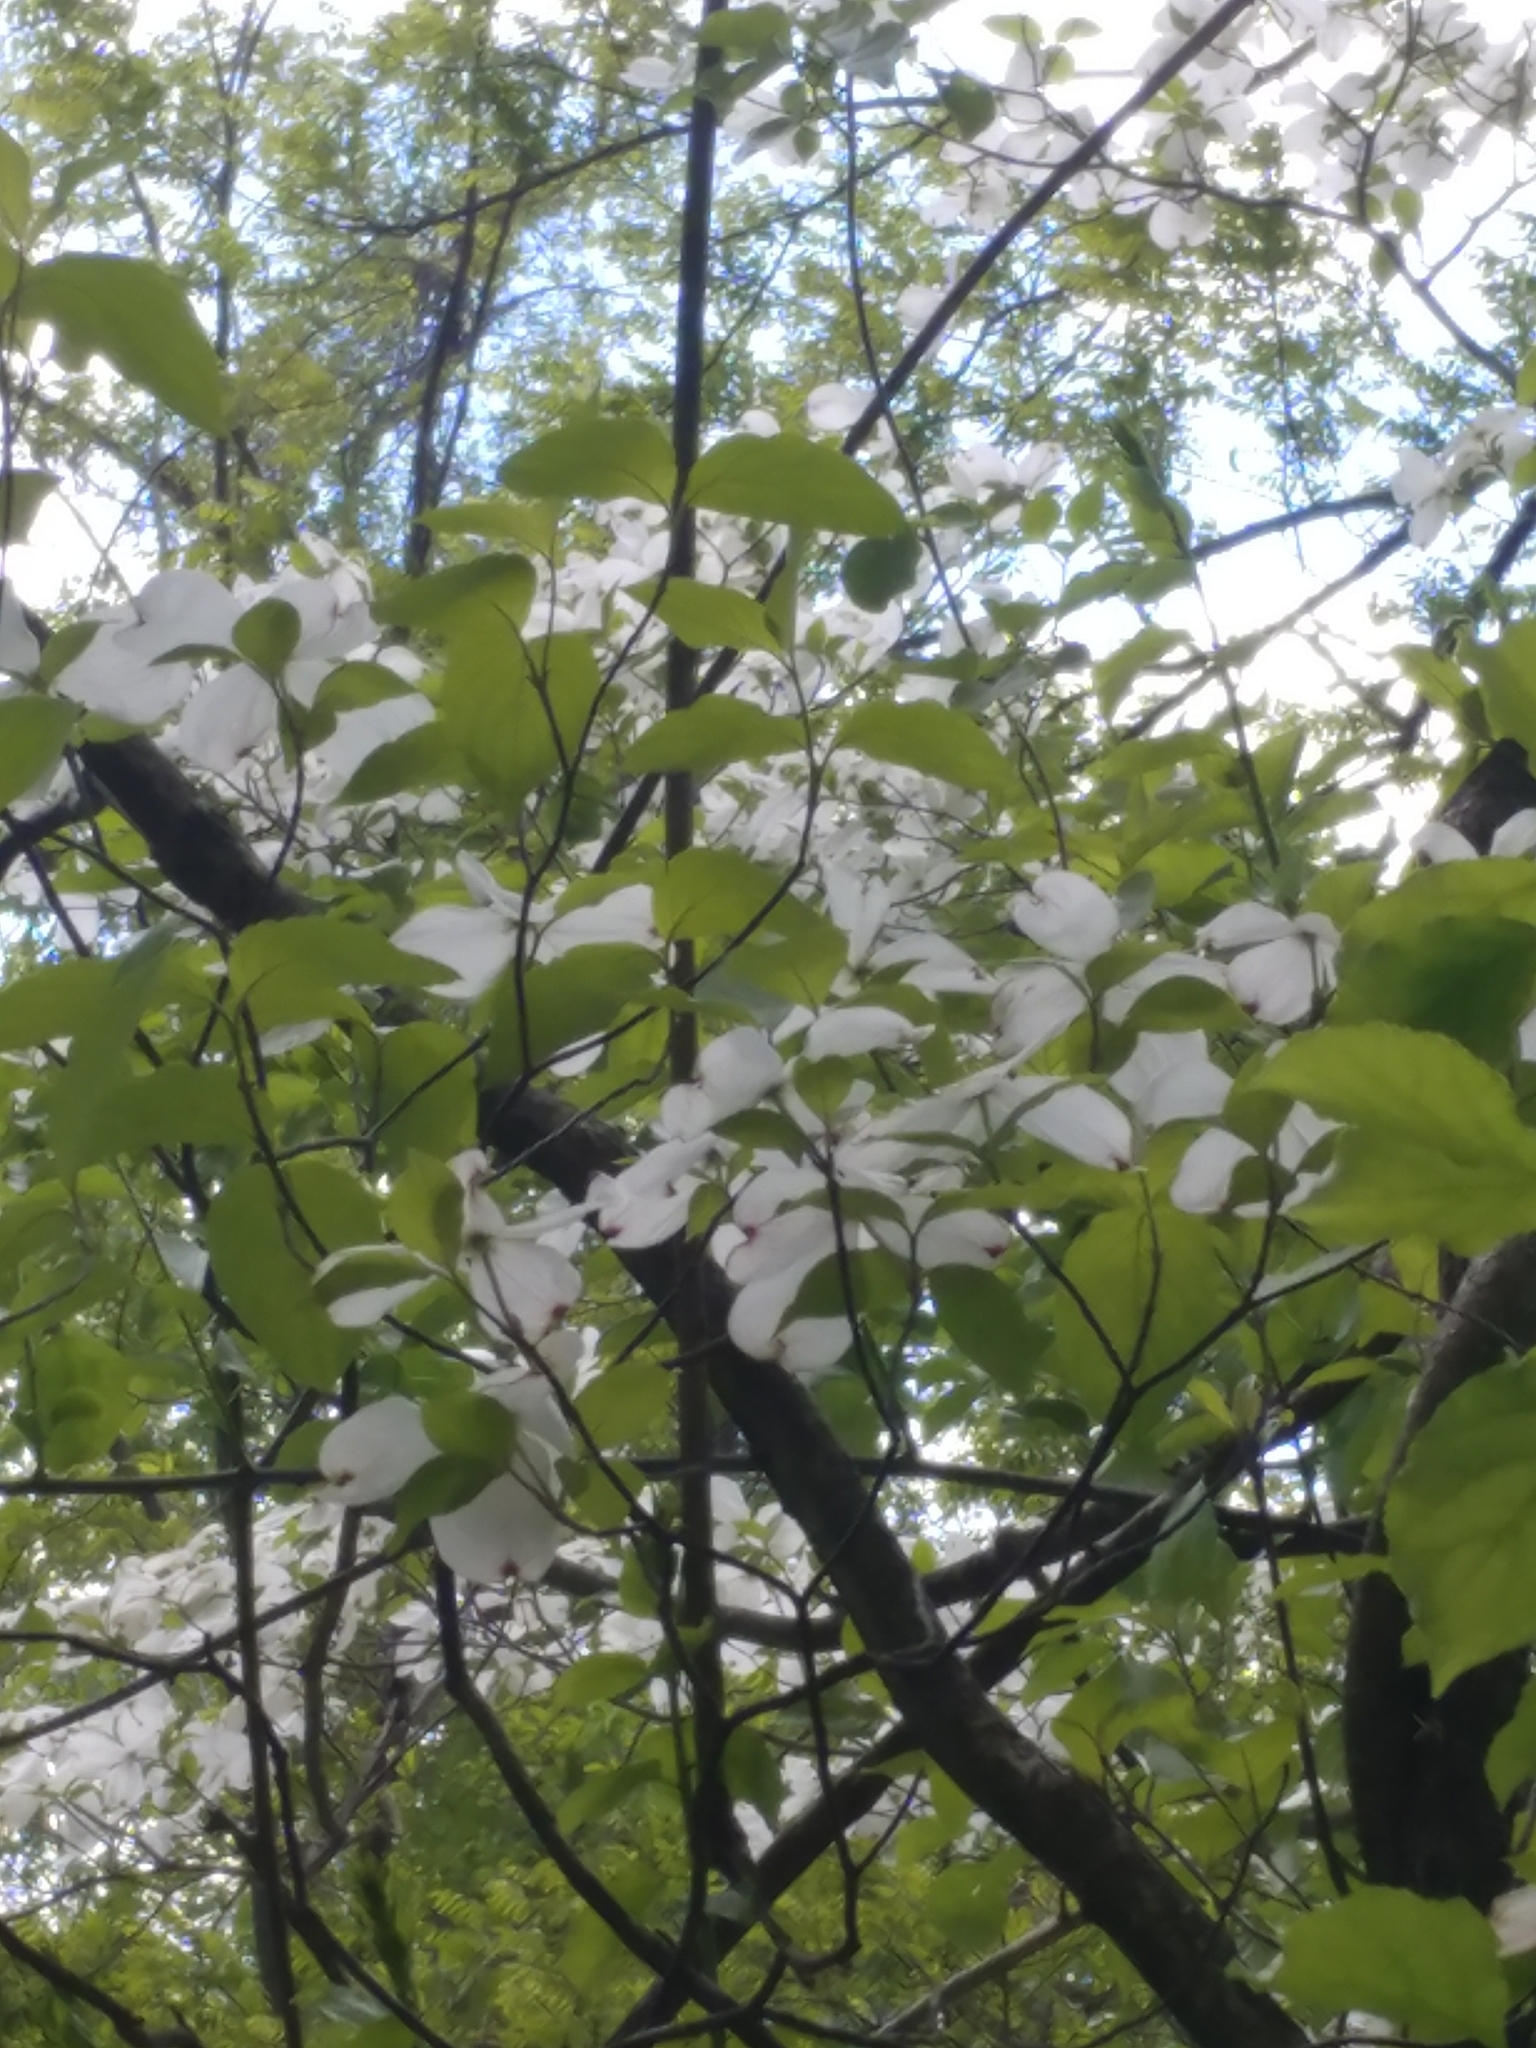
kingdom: Plantae
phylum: Tracheophyta
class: Magnoliopsida
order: Cornales
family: Cornaceae
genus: Cornus
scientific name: Cornus florida
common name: Flowering dogwood
